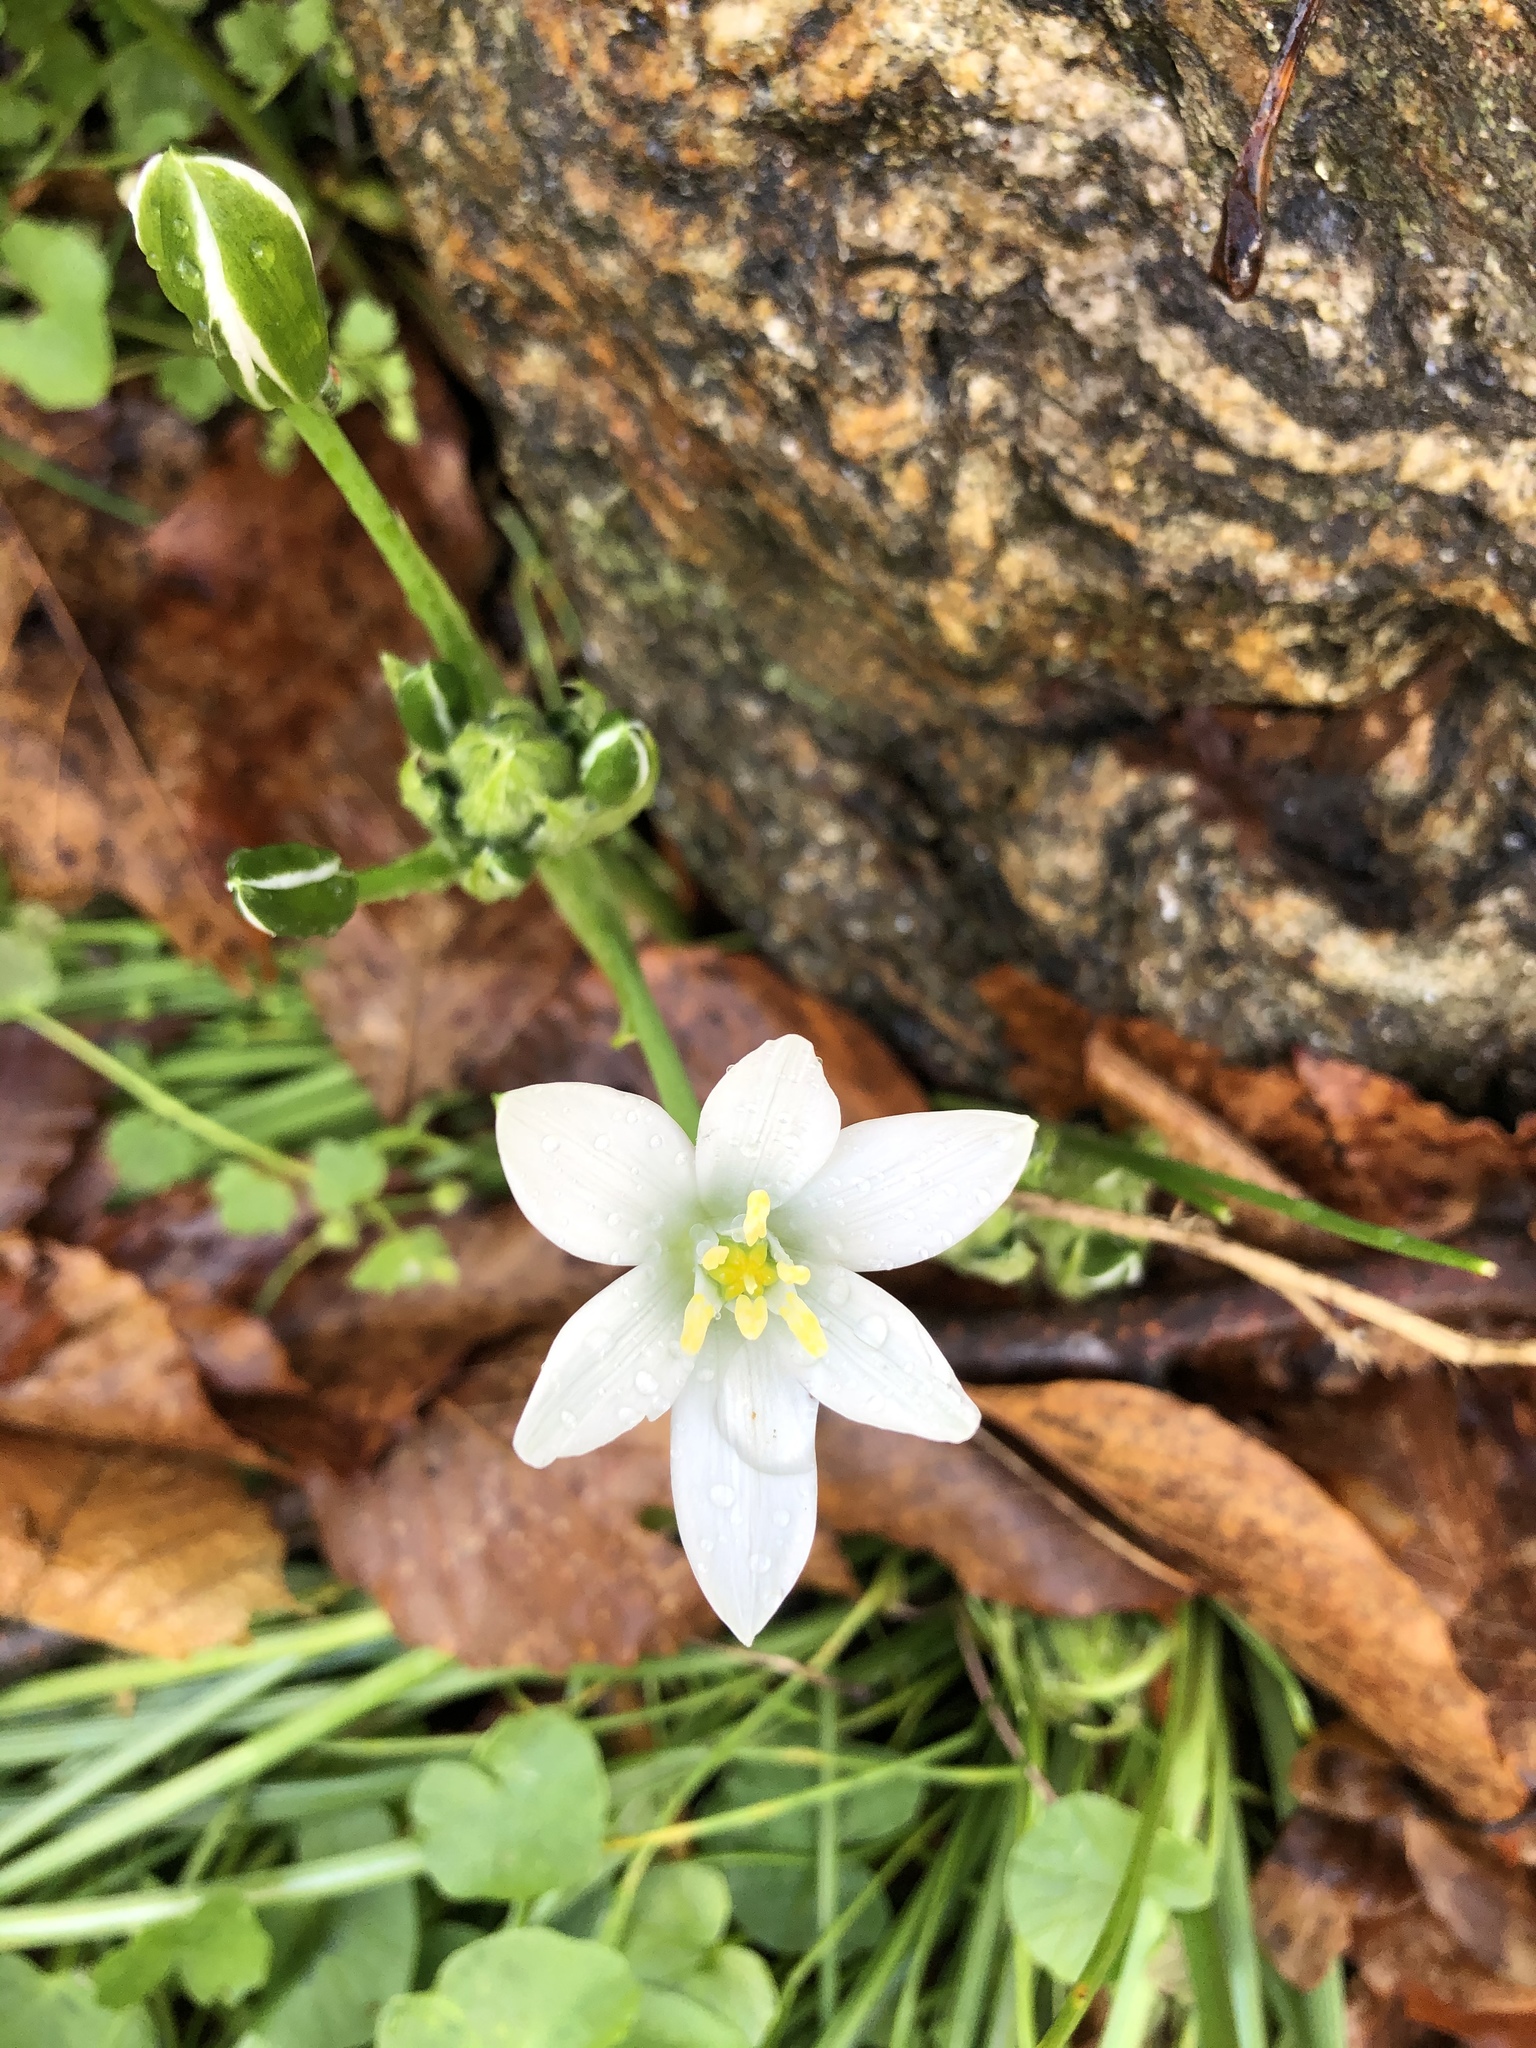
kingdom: Plantae
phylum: Tracheophyta
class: Liliopsida
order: Asparagales
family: Asparagaceae
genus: Ornithogalum
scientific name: Ornithogalum umbellatum
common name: Garden star-of-bethlehem
